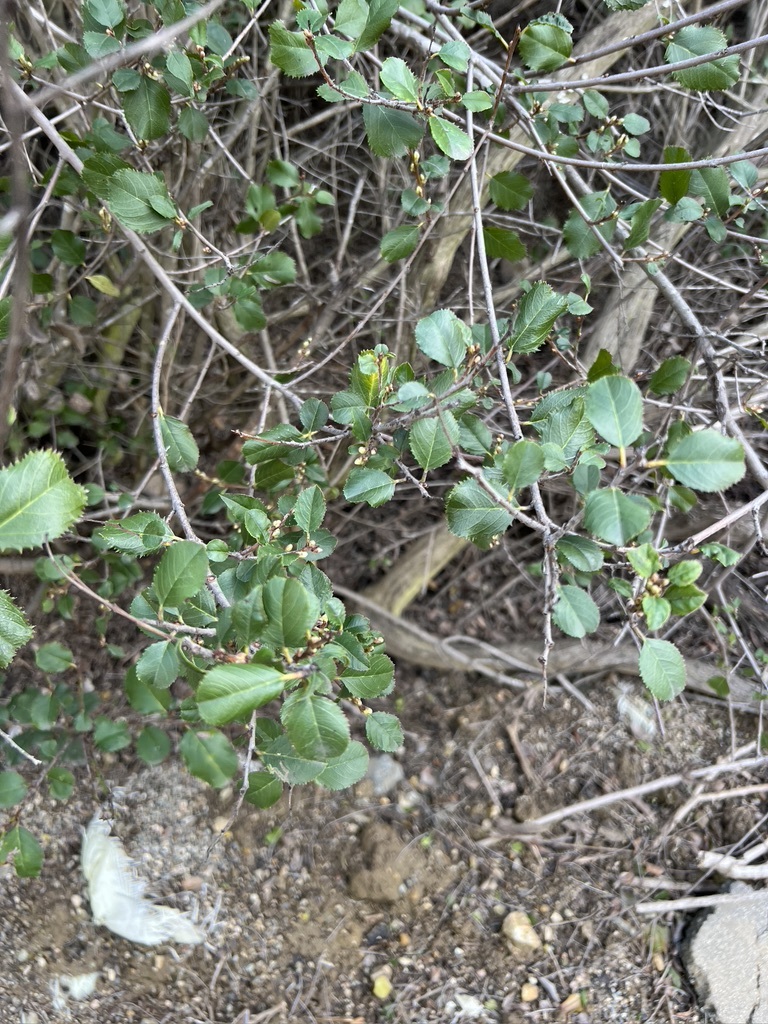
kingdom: Plantae
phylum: Tracheophyta
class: Magnoliopsida
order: Rosales
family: Rhamnaceae
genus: Endotropis
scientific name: Endotropis crocea
